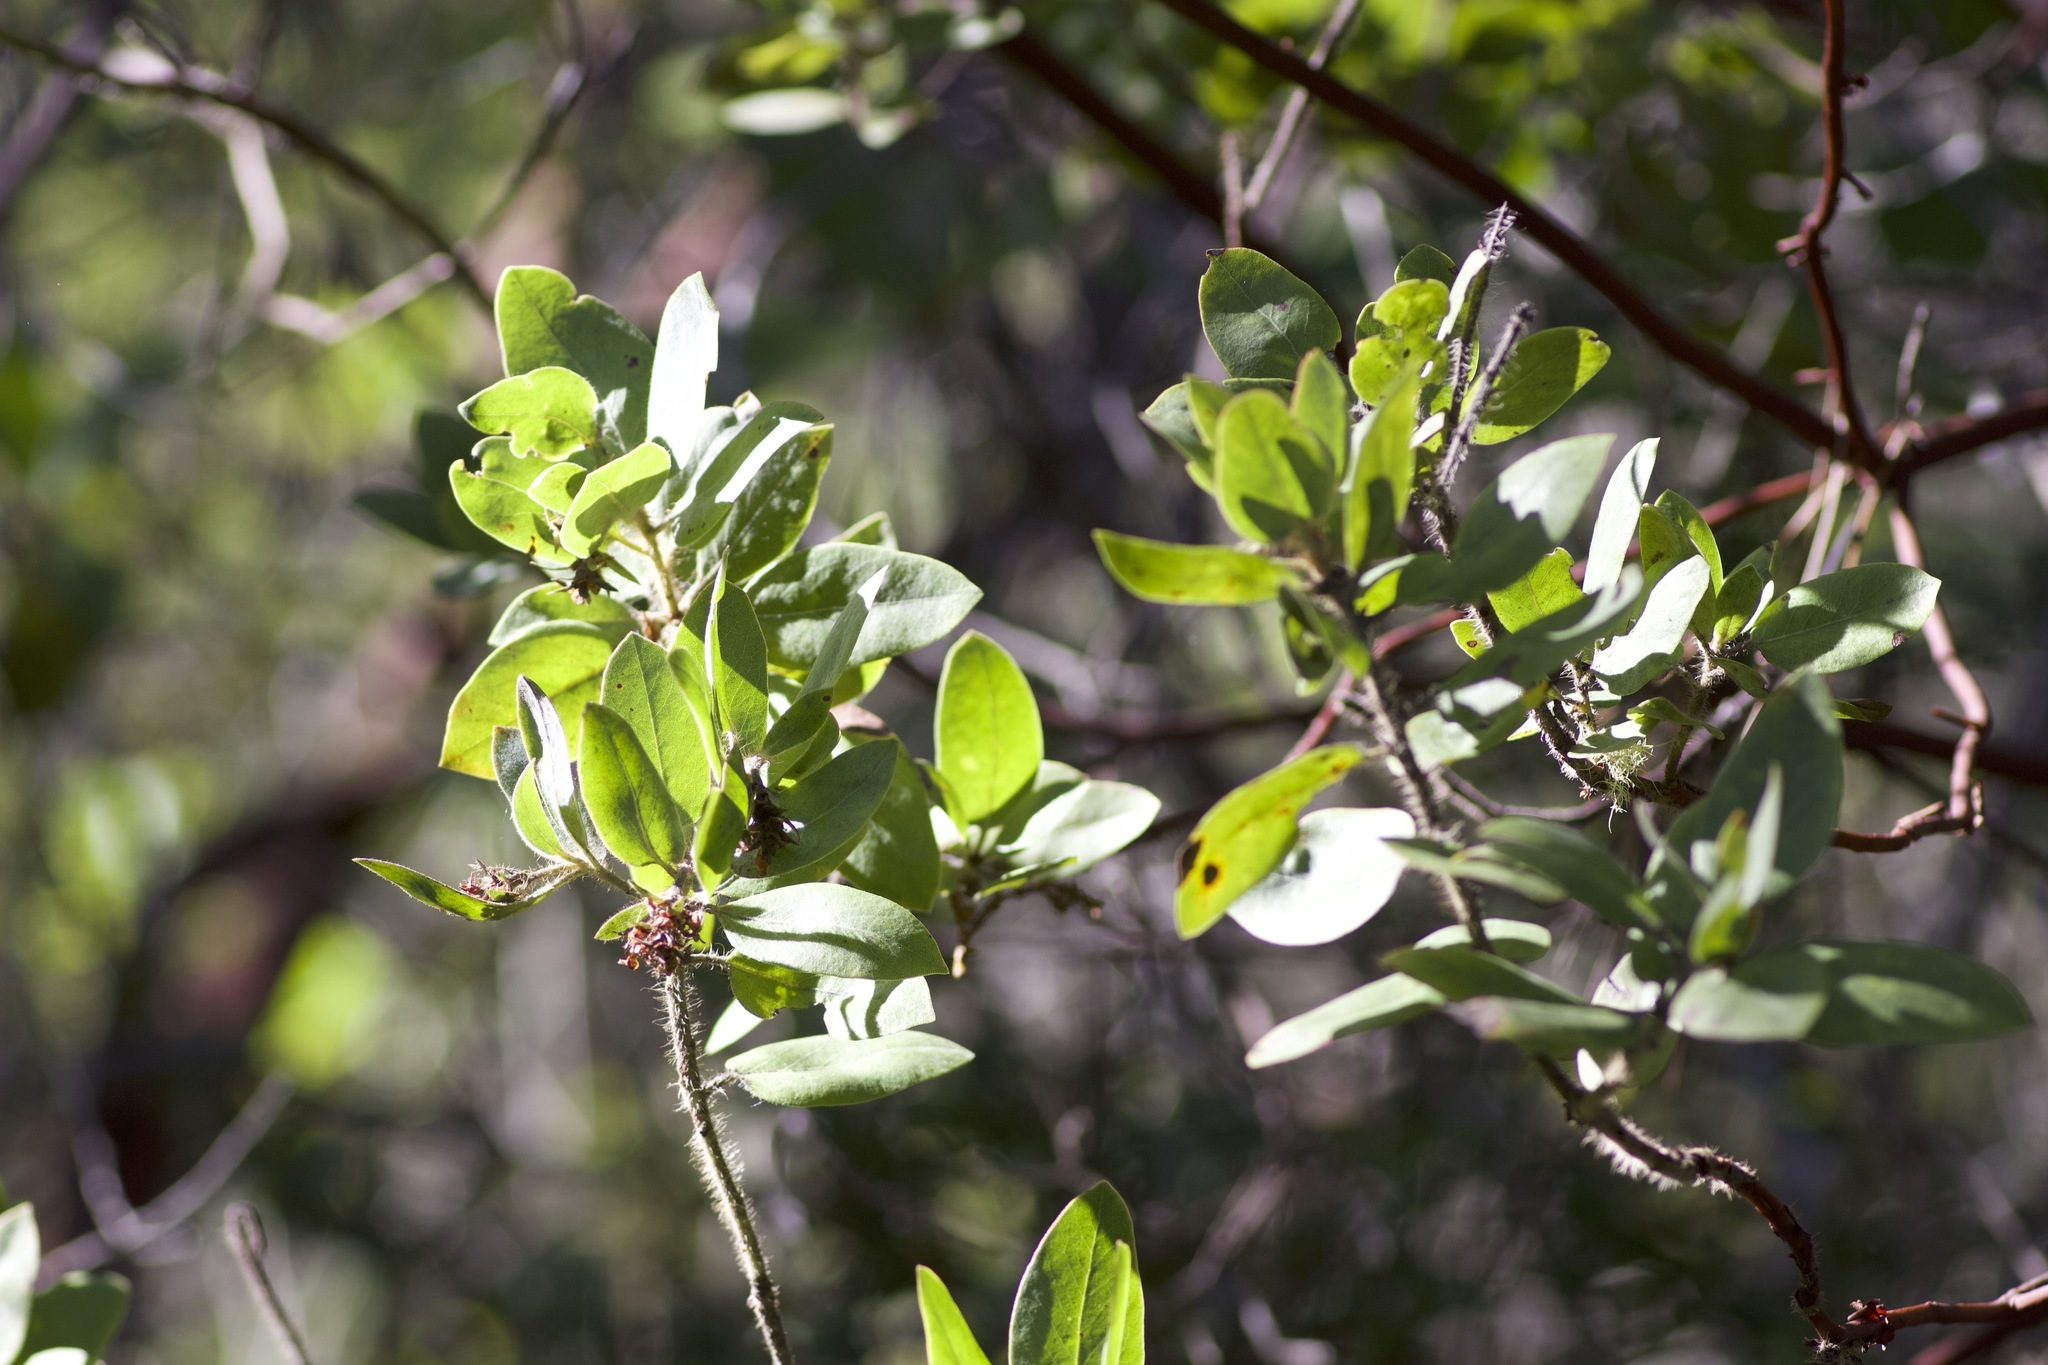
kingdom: Plantae
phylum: Tracheophyta
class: Magnoliopsida
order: Ericales
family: Ericaceae
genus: Arctostaphylos
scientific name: Arctostaphylos columbiana
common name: Bristly bearberry
